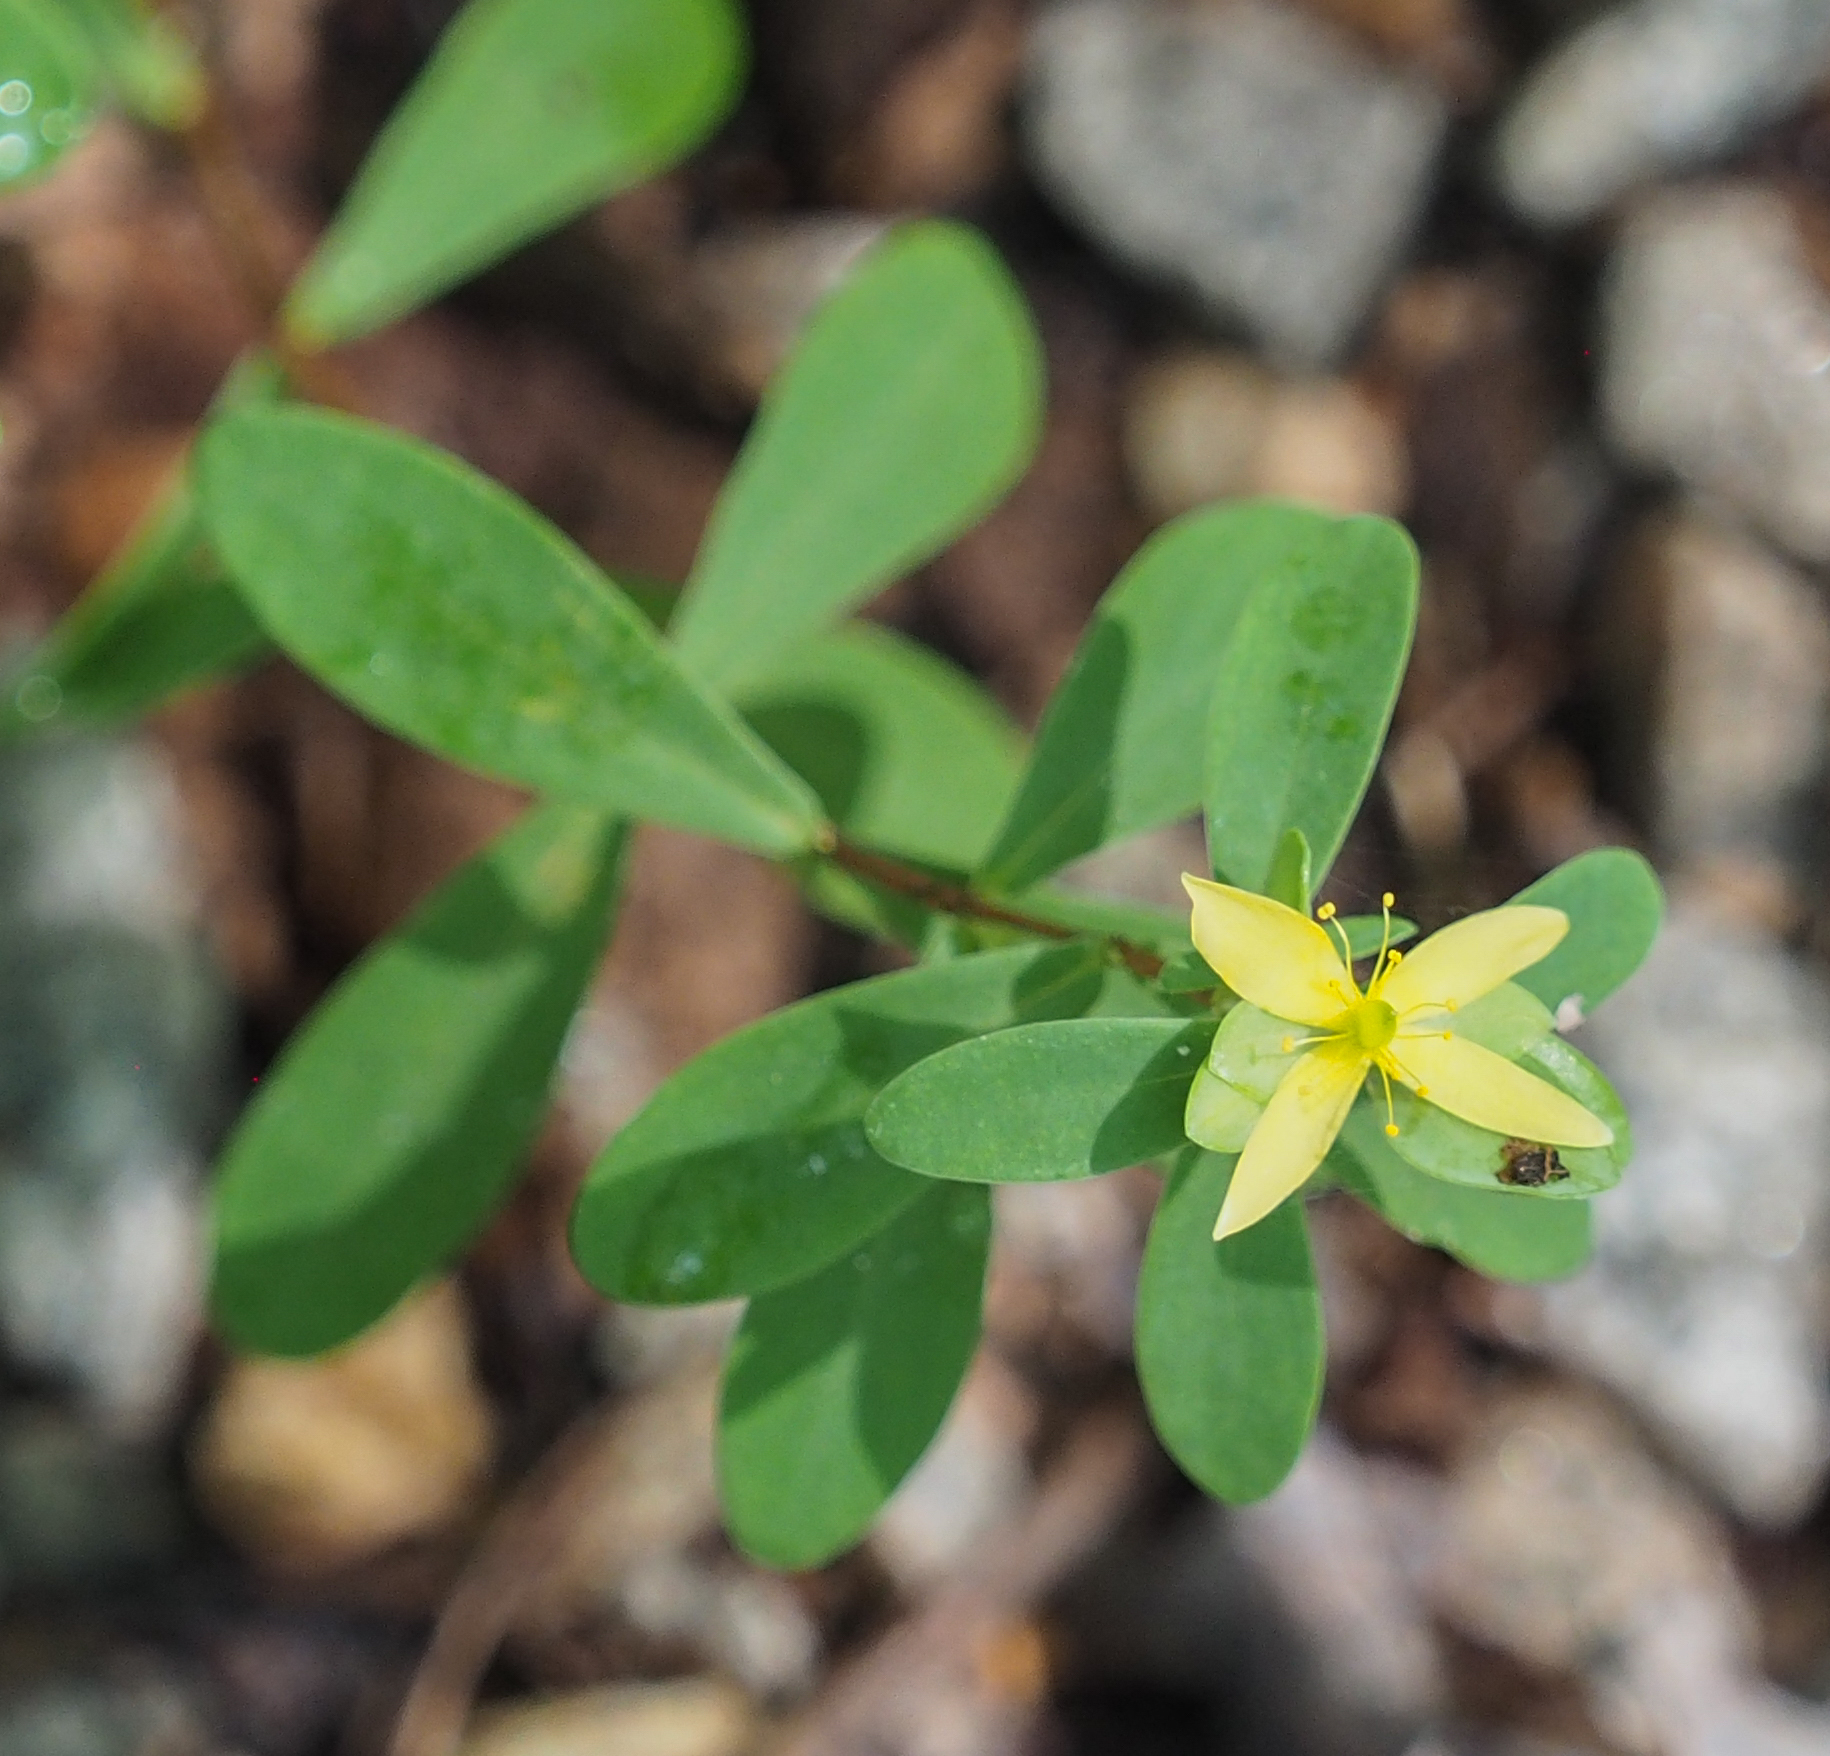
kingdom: Plantae
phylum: Tracheophyta
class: Magnoliopsida
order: Malpighiales
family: Hypericaceae
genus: Hypericum
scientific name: Hypericum hypericoides
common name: St. andrew's cross
